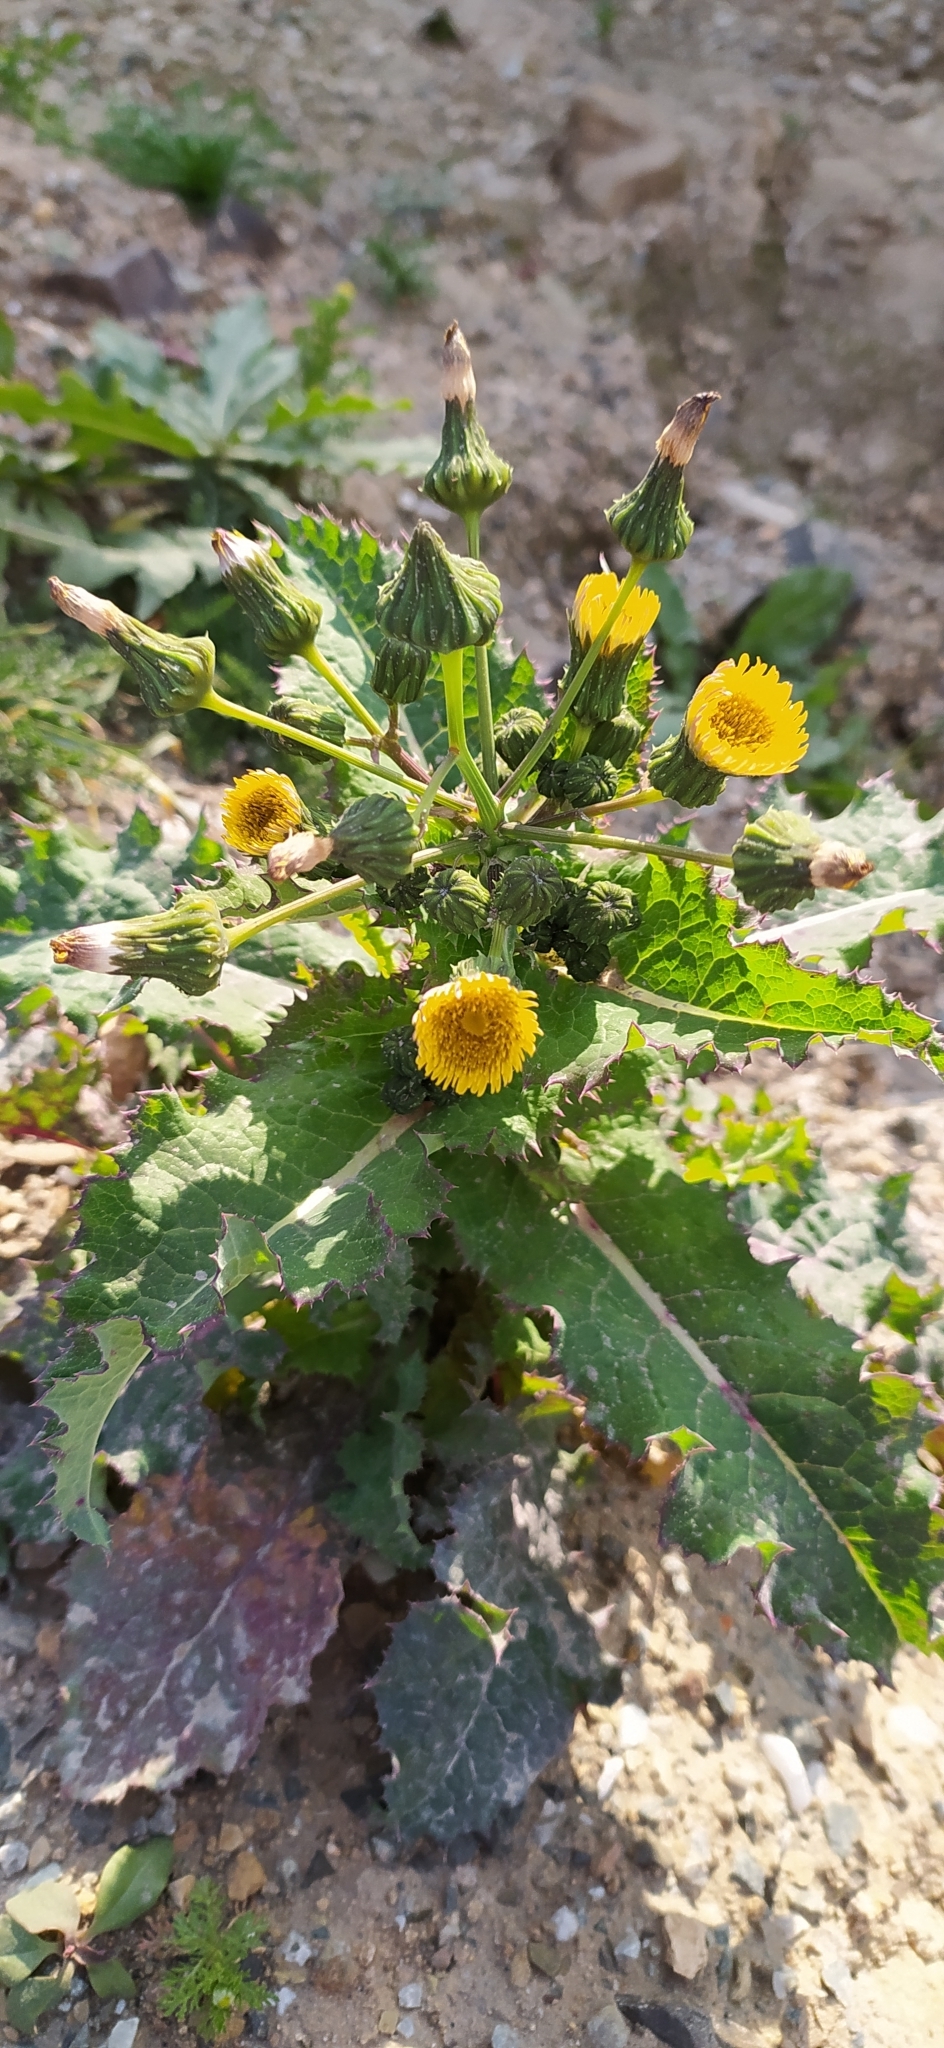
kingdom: Plantae
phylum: Tracheophyta
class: Magnoliopsida
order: Asterales
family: Asteraceae
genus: Sonchus
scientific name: Sonchus asper
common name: Prickly sow-thistle
